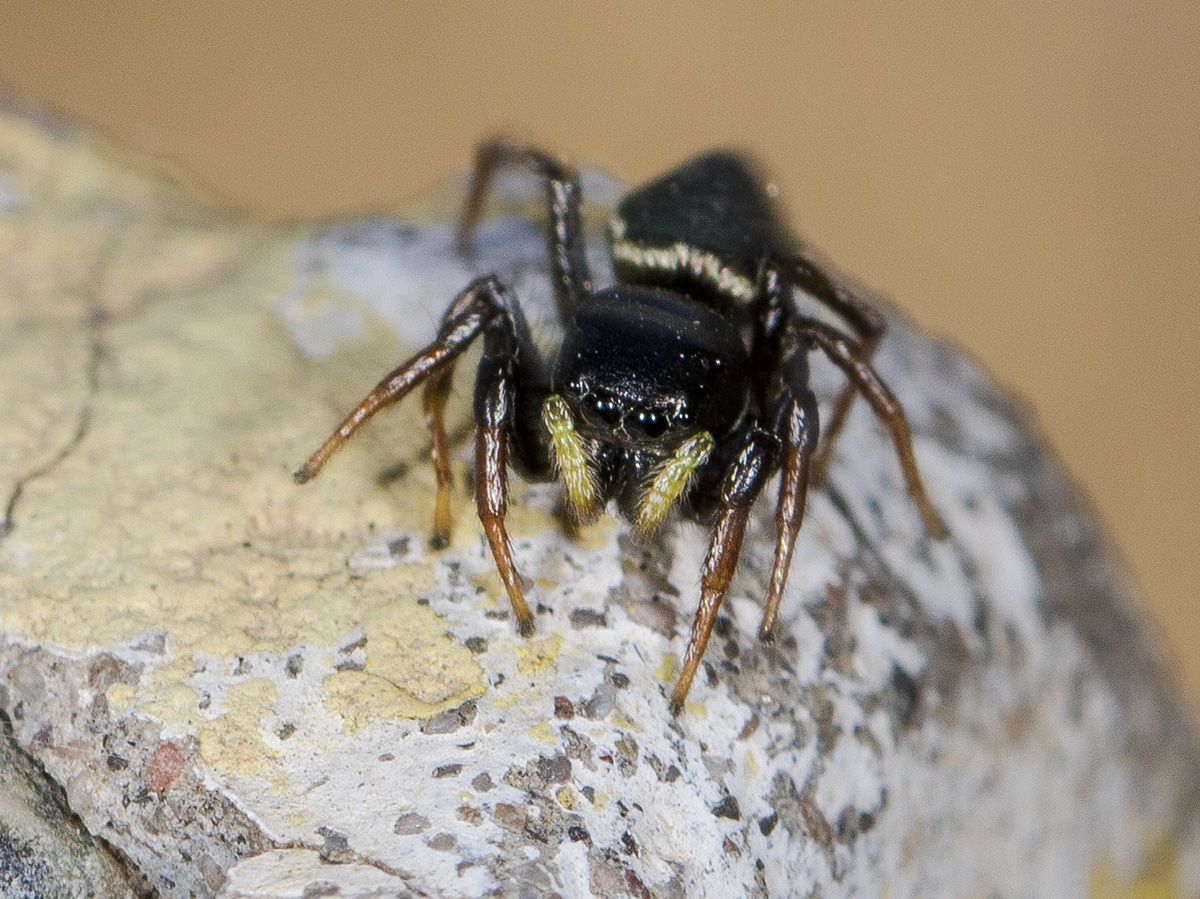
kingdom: Animalia
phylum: Arthropoda
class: Arachnida
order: Araneae
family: Salticidae
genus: Heliophanus
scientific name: Heliophanus chovdensis
